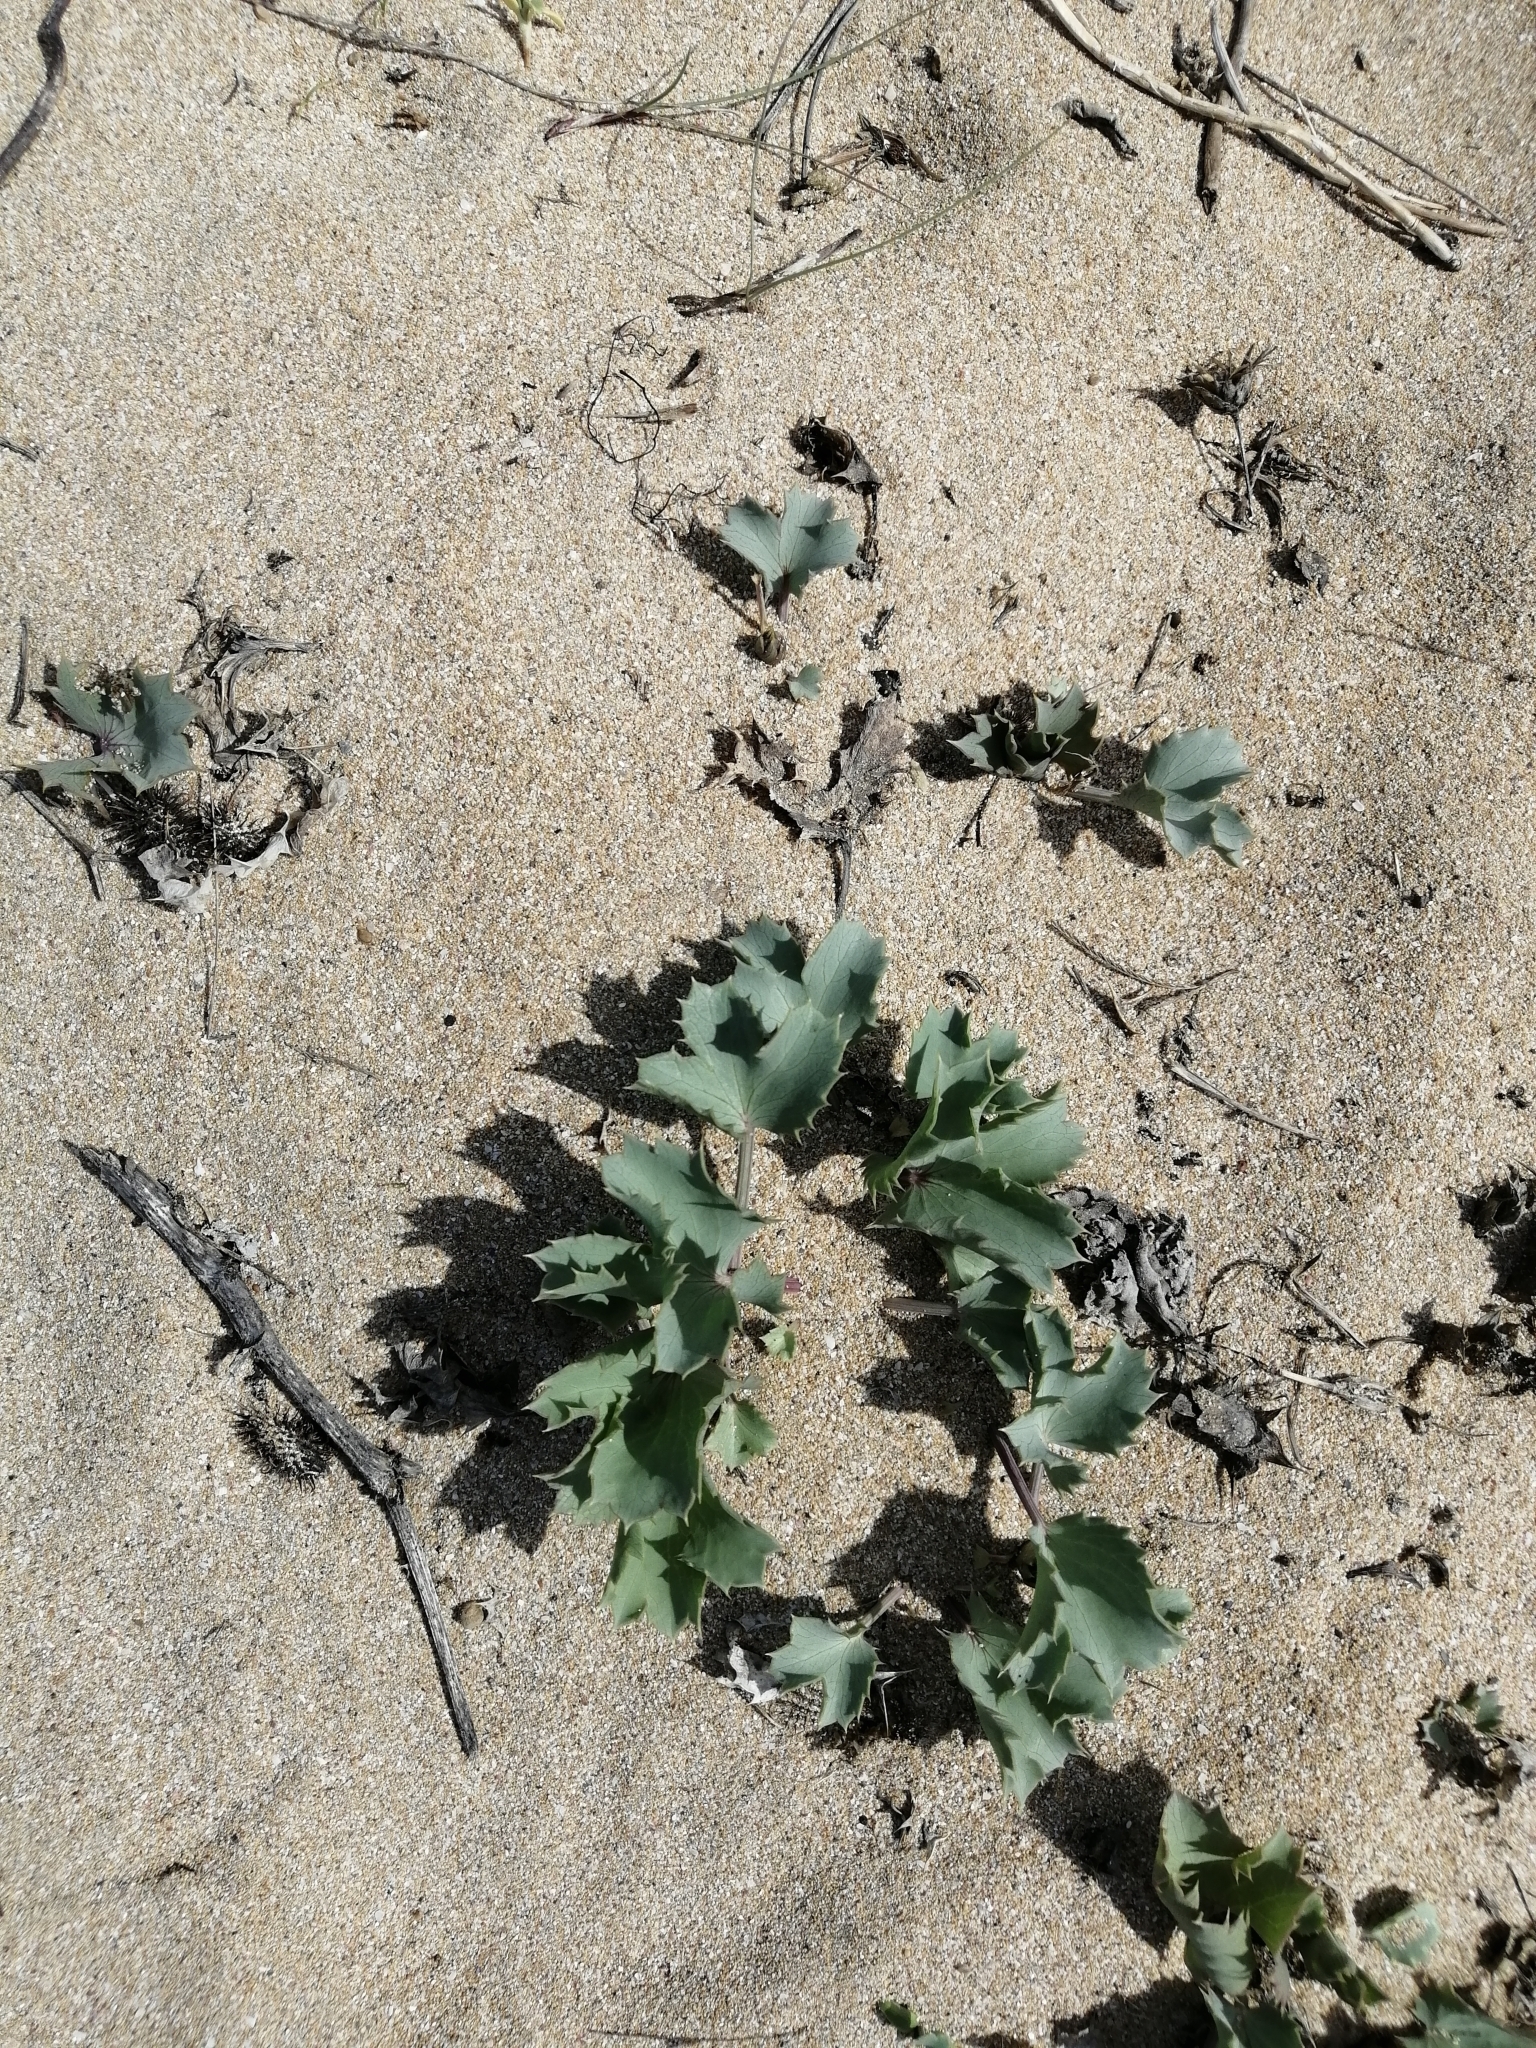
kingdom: Plantae
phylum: Tracheophyta
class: Magnoliopsida
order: Apiales
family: Apiaceae
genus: Eryngium
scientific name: Eryngium maritimum
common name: Sea-holly
